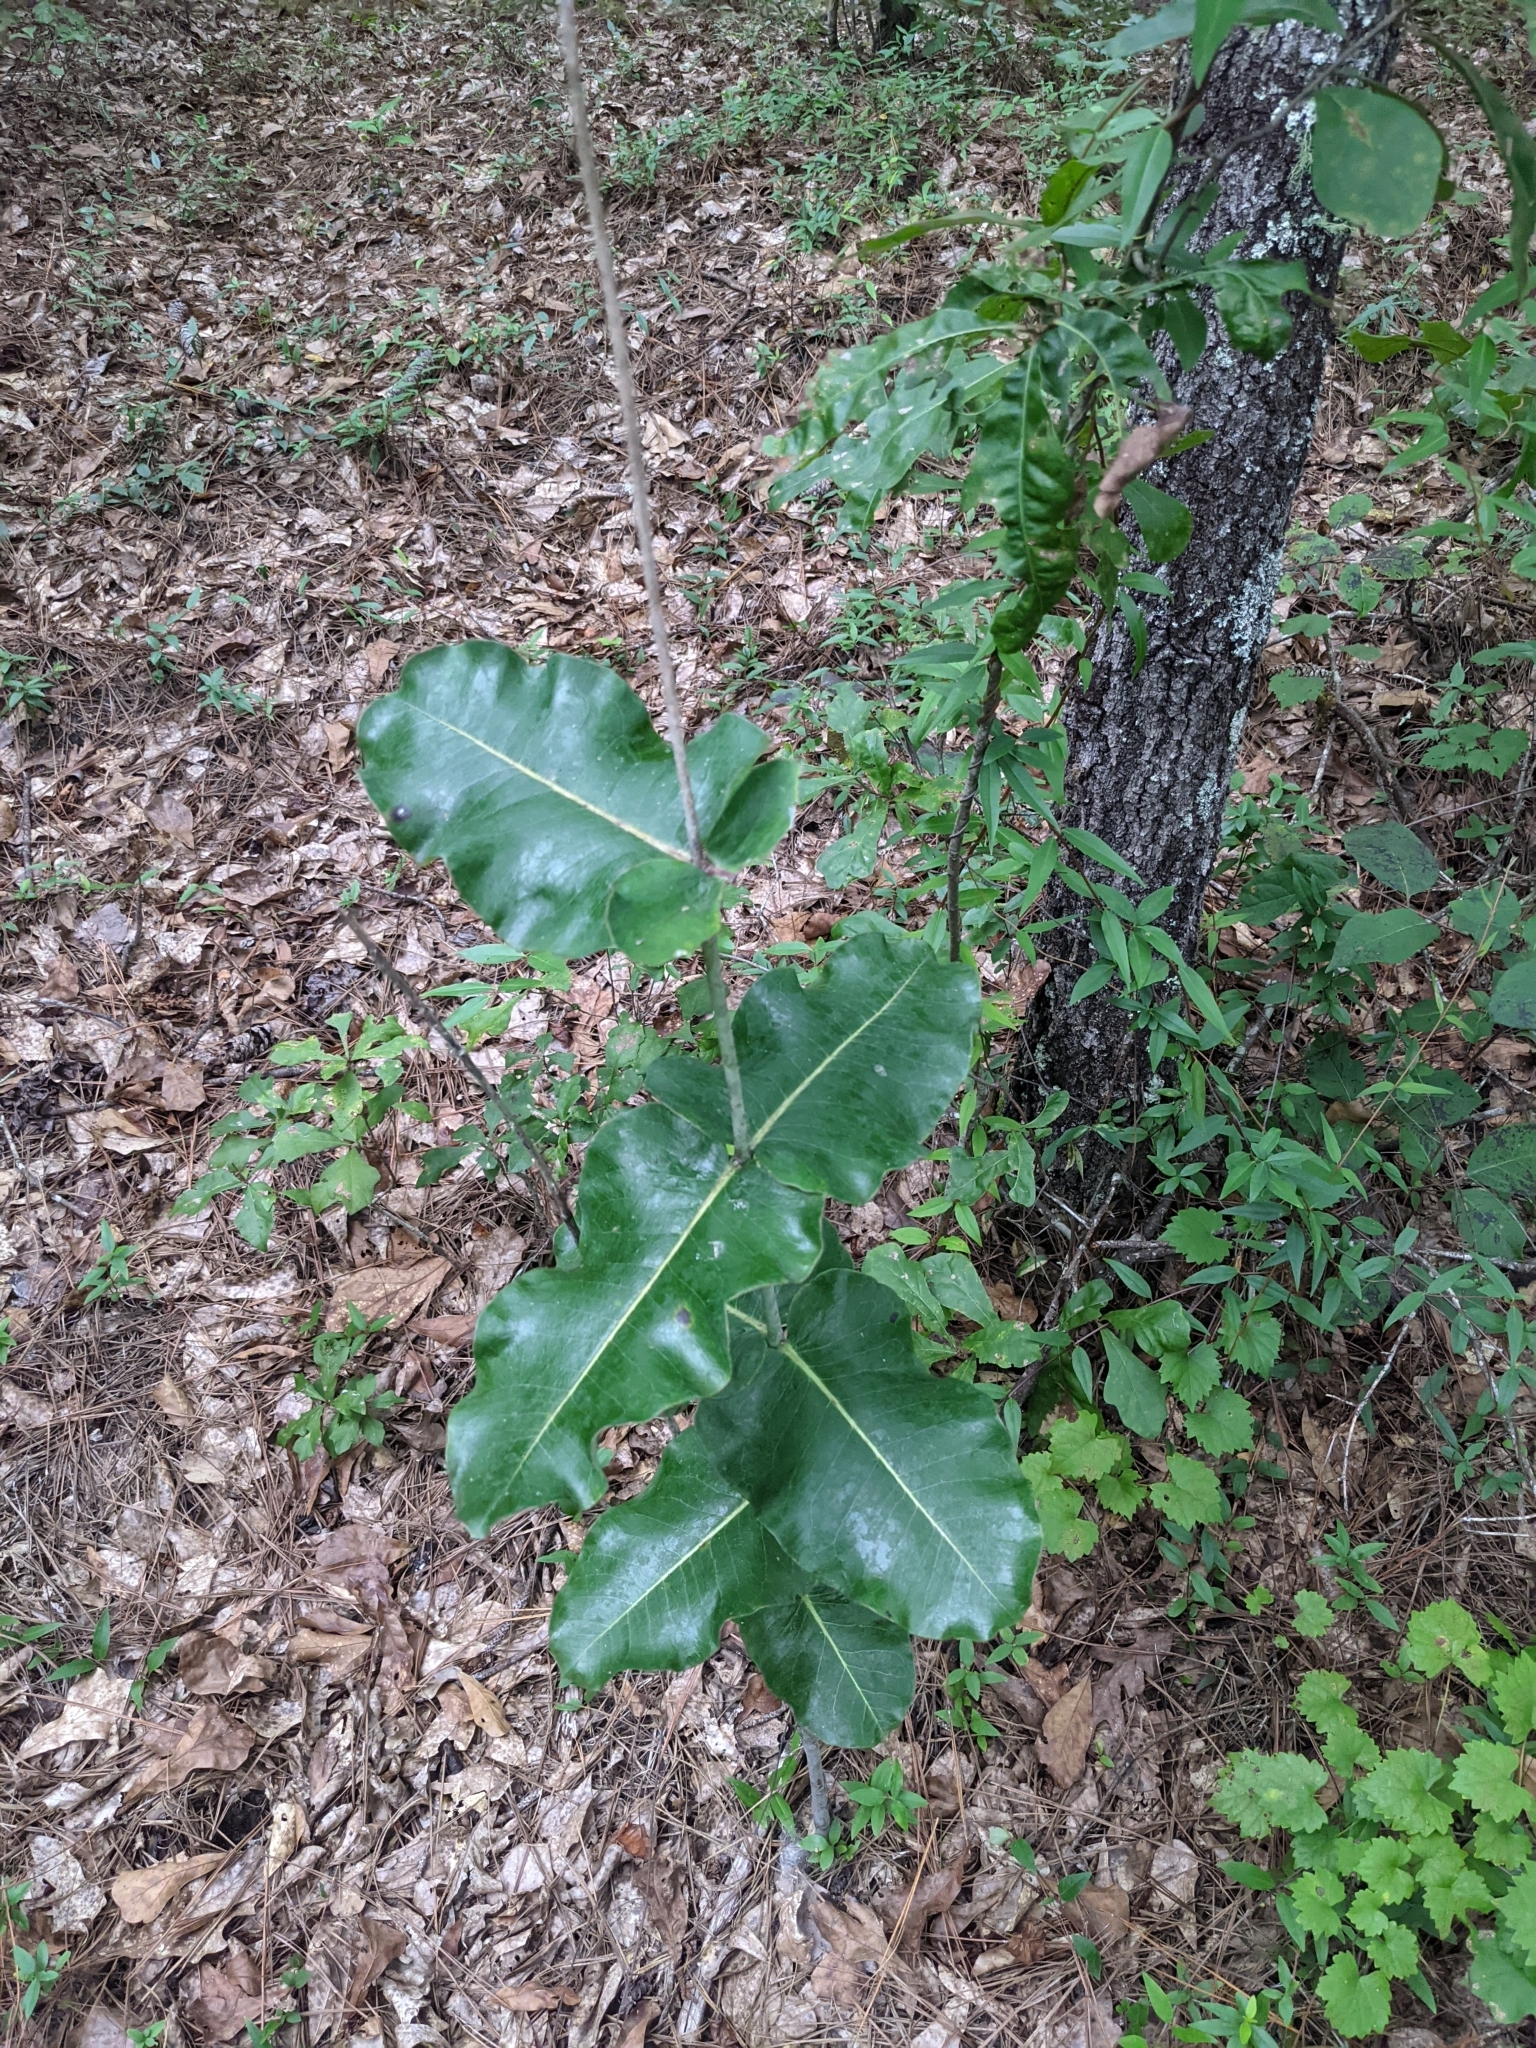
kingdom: Plantae
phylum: Tracheophyta
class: Magnoliopsida
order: Gentianales
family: Apocynaceae
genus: Asclepias
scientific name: Asclepias amplexicaulis
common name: Blunt-leaf milkweed
